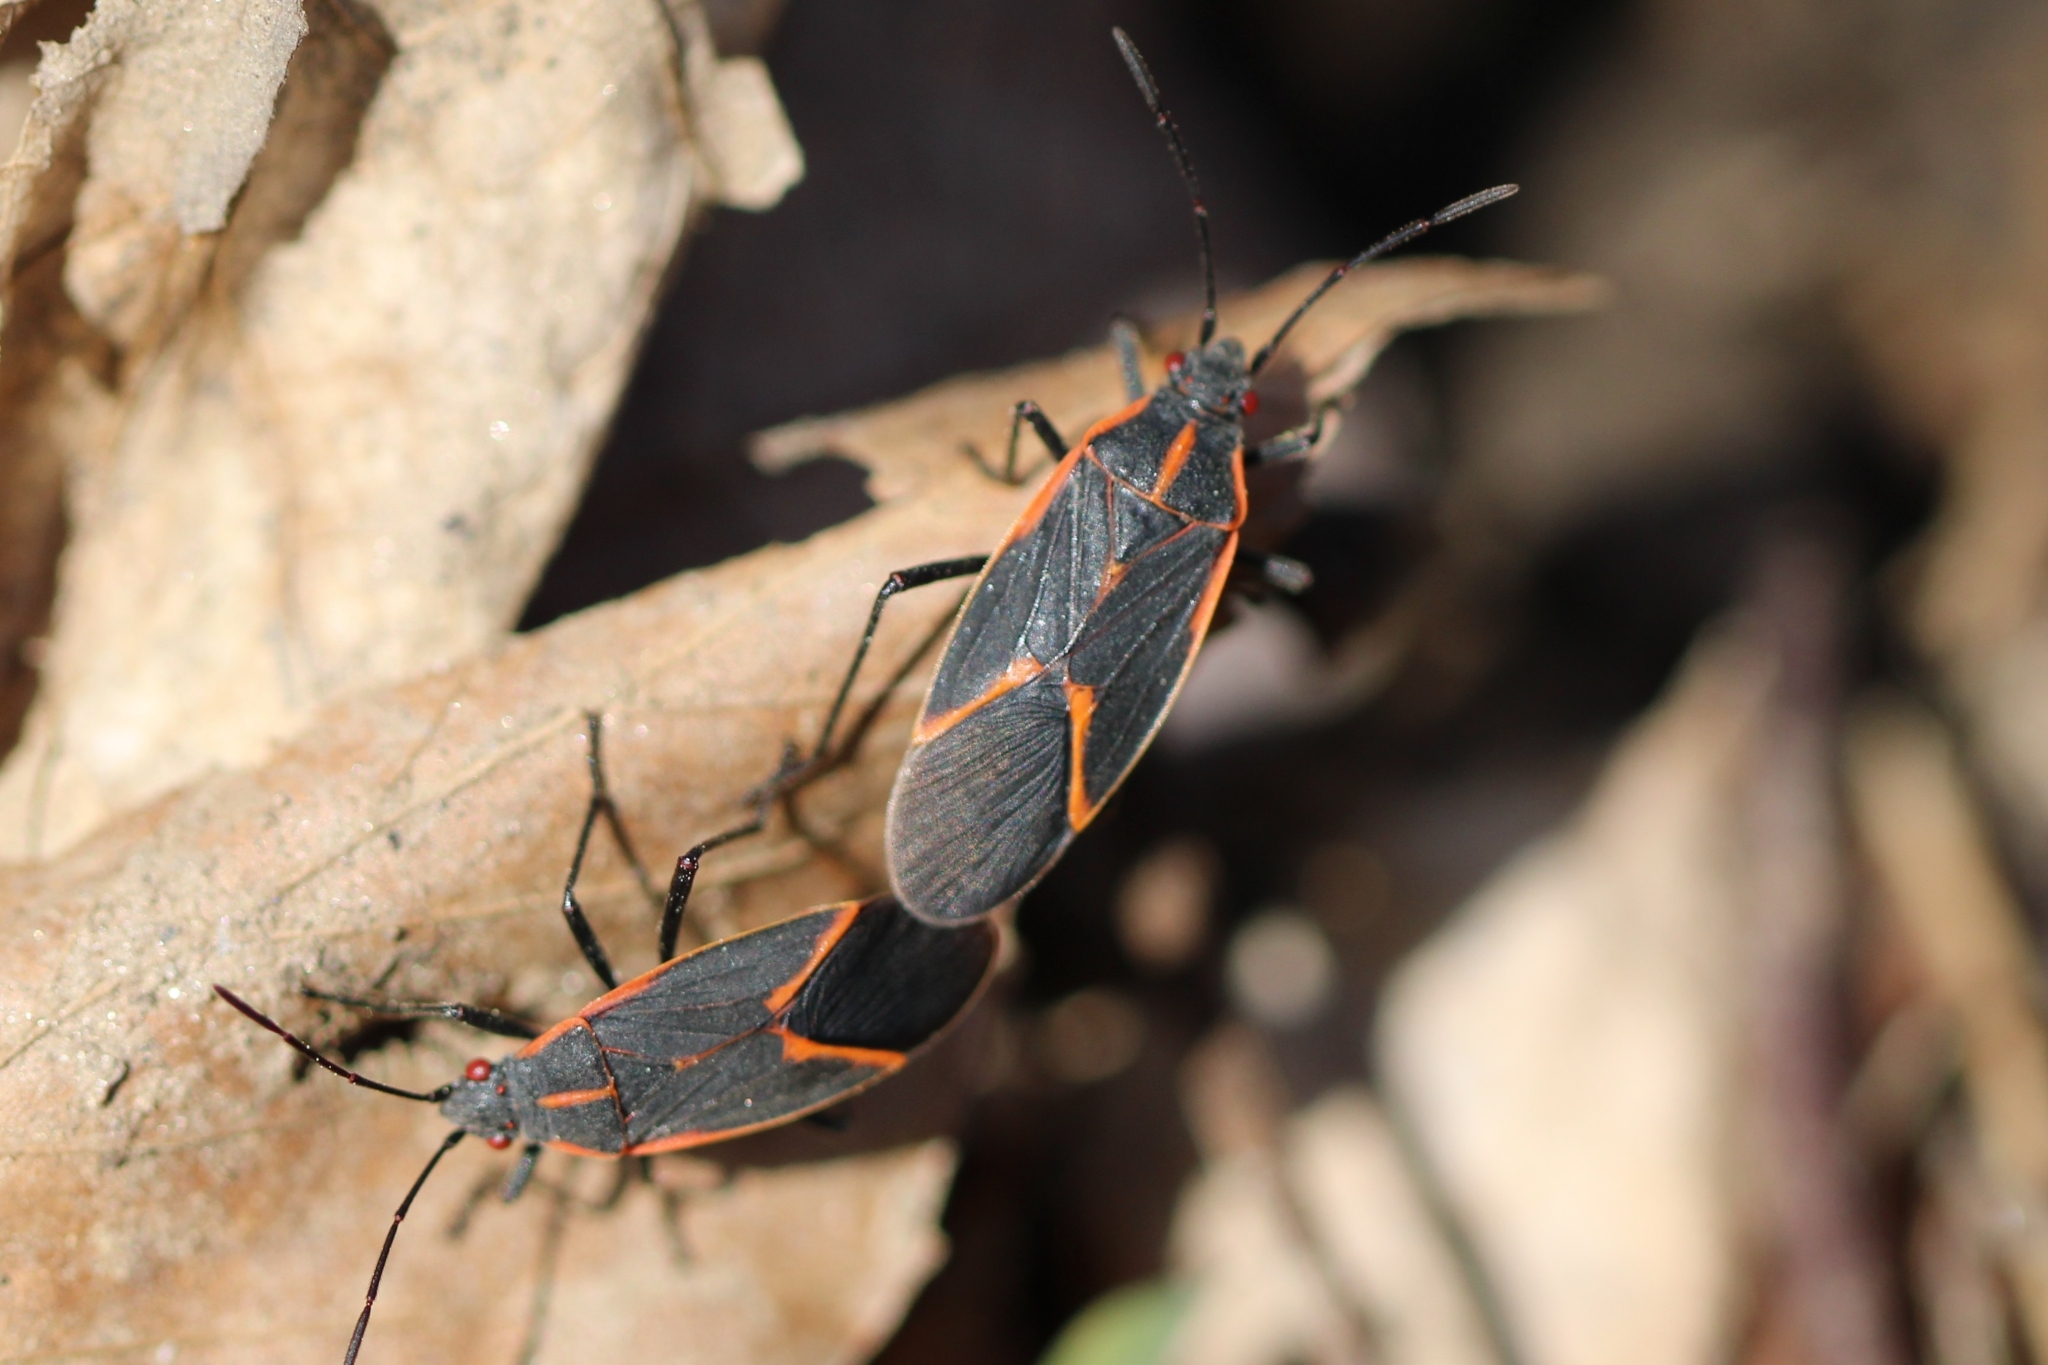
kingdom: Animalia
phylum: Arthropoda
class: Insecta
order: Hemiptera
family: Rhopalidae
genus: Boisea
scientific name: Boisea trivittata
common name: Boxelder bug
